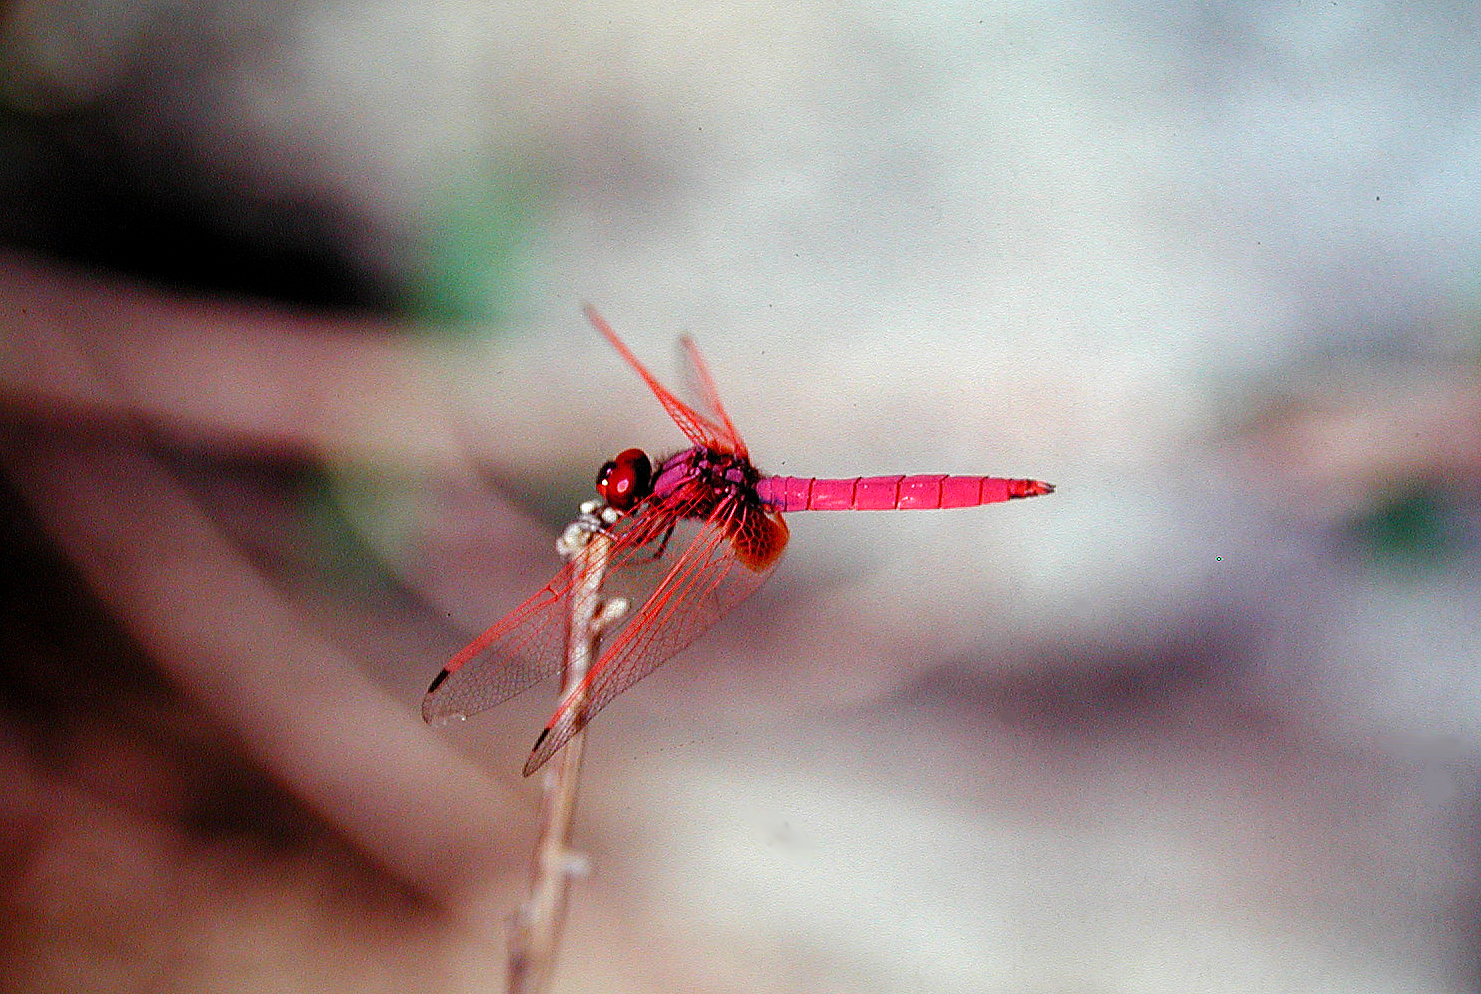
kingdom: Animalia
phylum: Arthropoda
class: Insecta
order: Odonata
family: Libellulidae
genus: Trithemis
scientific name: Trithemis aurora
